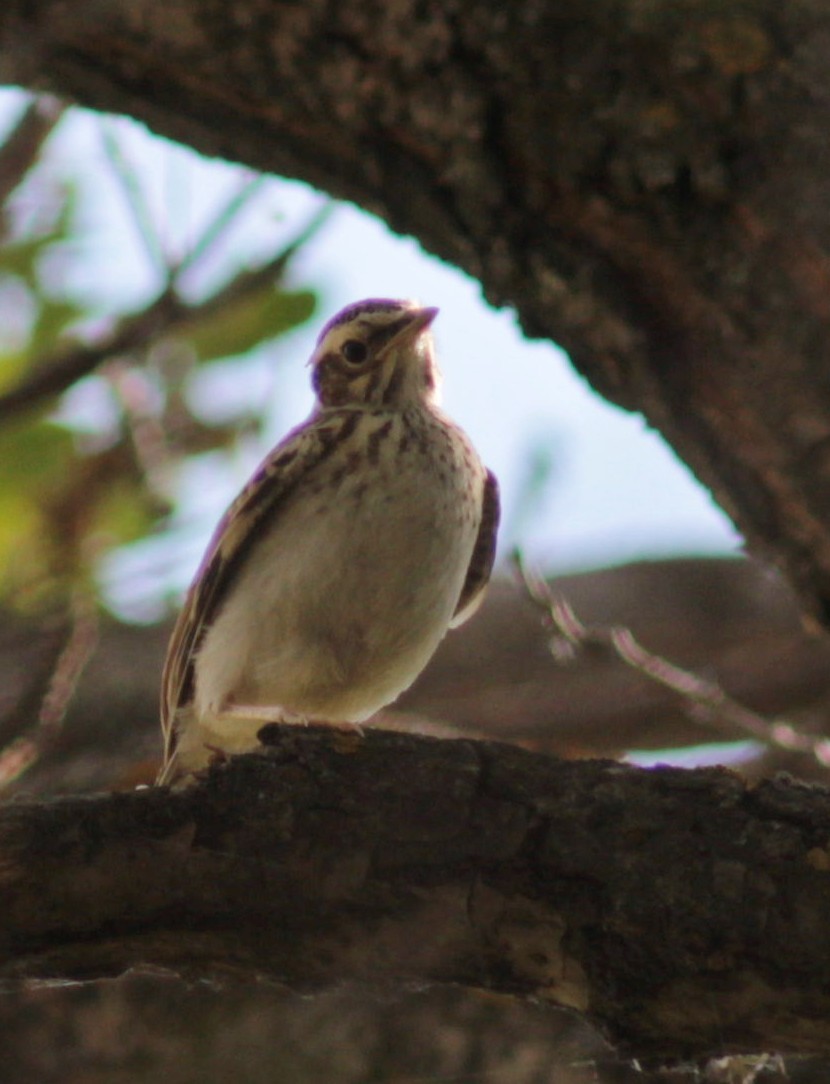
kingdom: Animalia
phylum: Chordata
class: Aves
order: Passeriformes
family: Alaudidae
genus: Lullula
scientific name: Lullula arborea
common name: Woodlark
